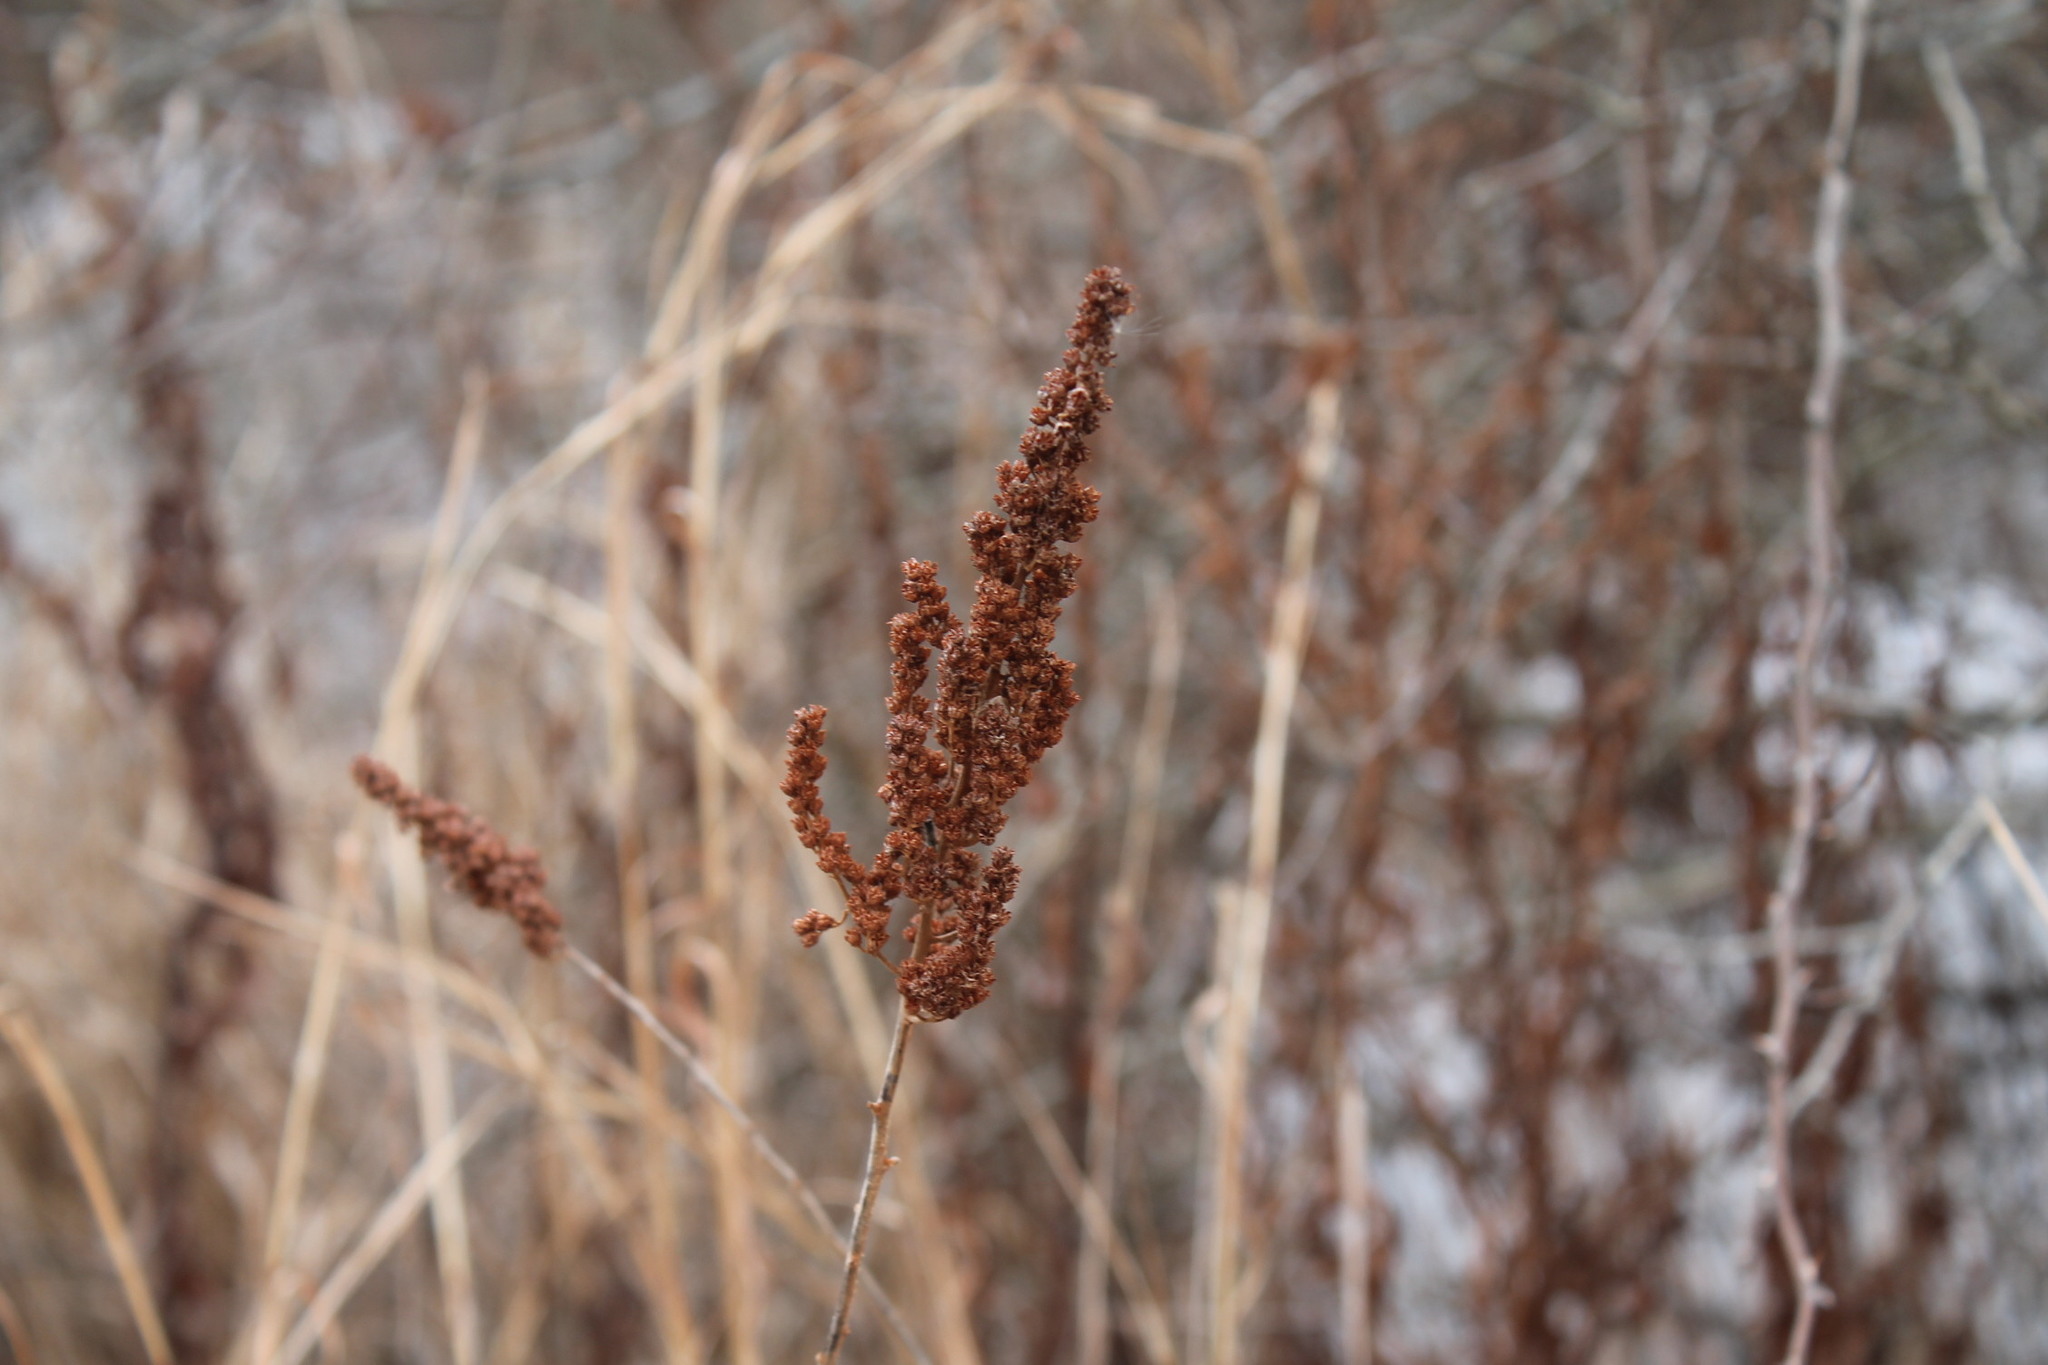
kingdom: Plantae
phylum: Tracheophyta
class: Magnoliopsida
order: Rosales
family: Rosaceae
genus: Spiraea
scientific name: Spiraea tomentosa
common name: Hardhack
